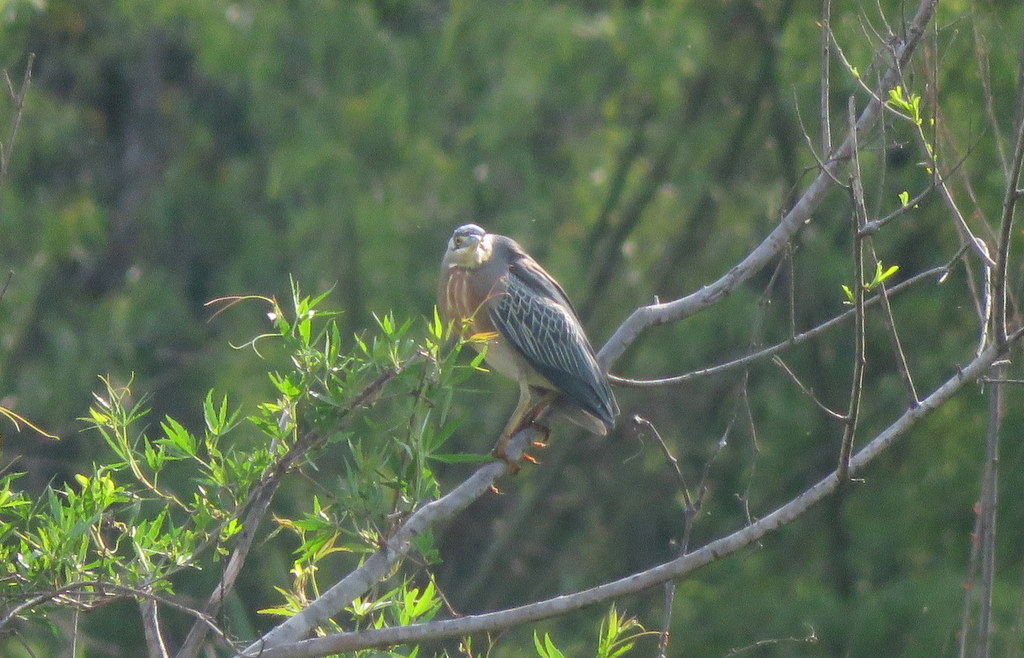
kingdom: Animalia
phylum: Chordata
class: Aves
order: Pelecaniformes
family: Ardeidae
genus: Butorides
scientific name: Butorides striata
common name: Striated heron
